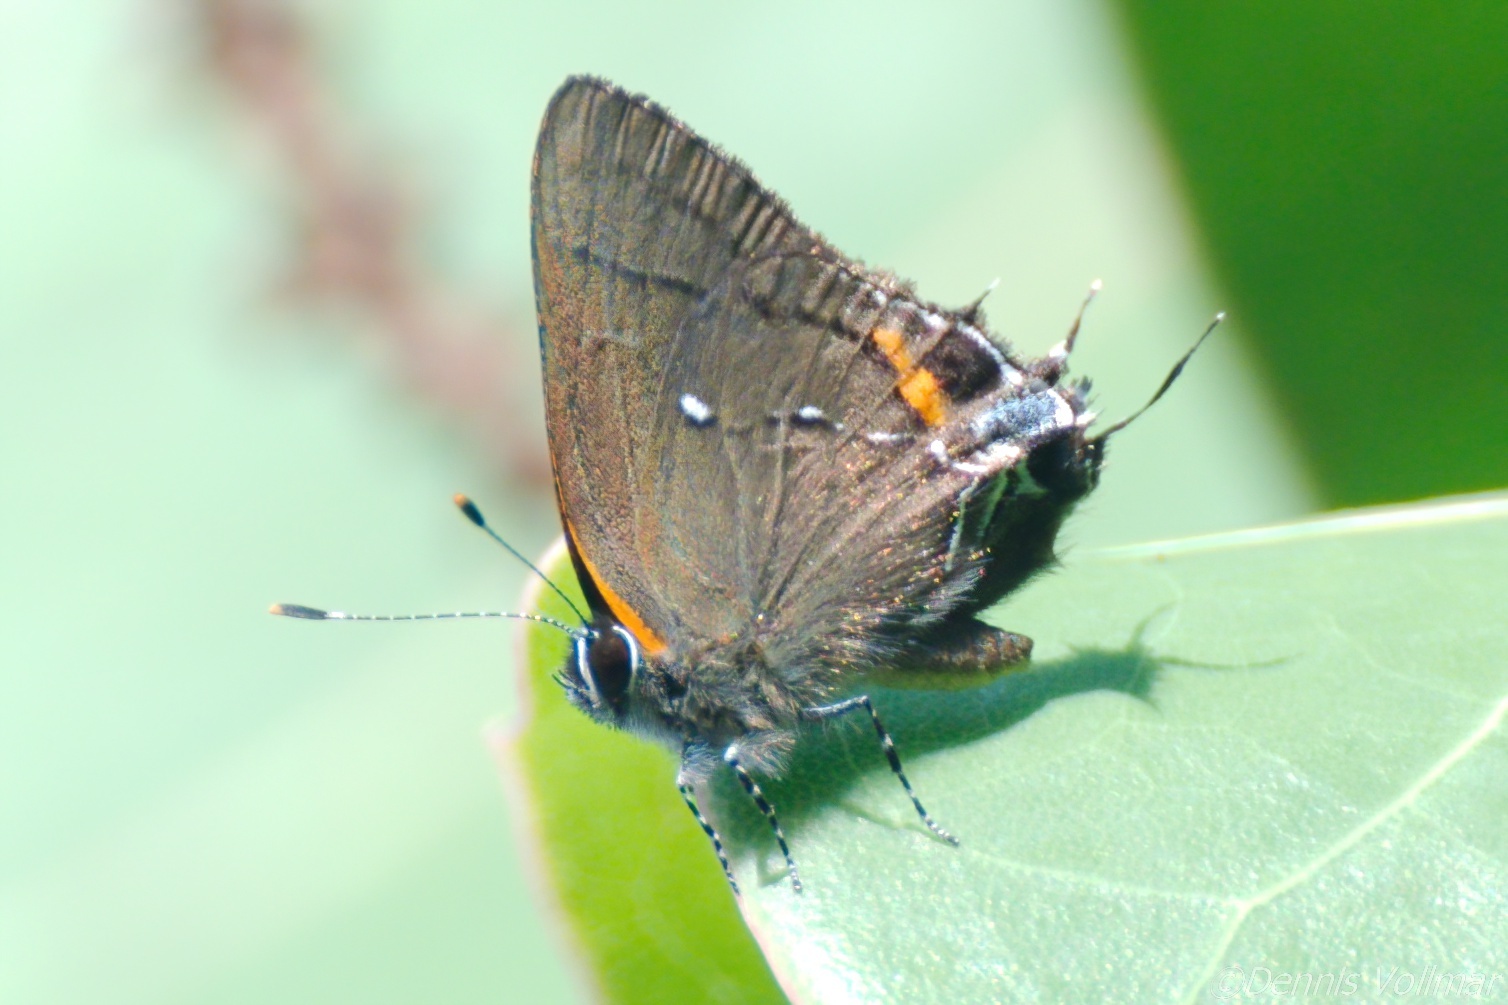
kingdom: Animalia
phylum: Arthropoda
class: Insecta
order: Lepidoptera
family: Lycaenidae
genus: Thecla
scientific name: Thecla angelia
